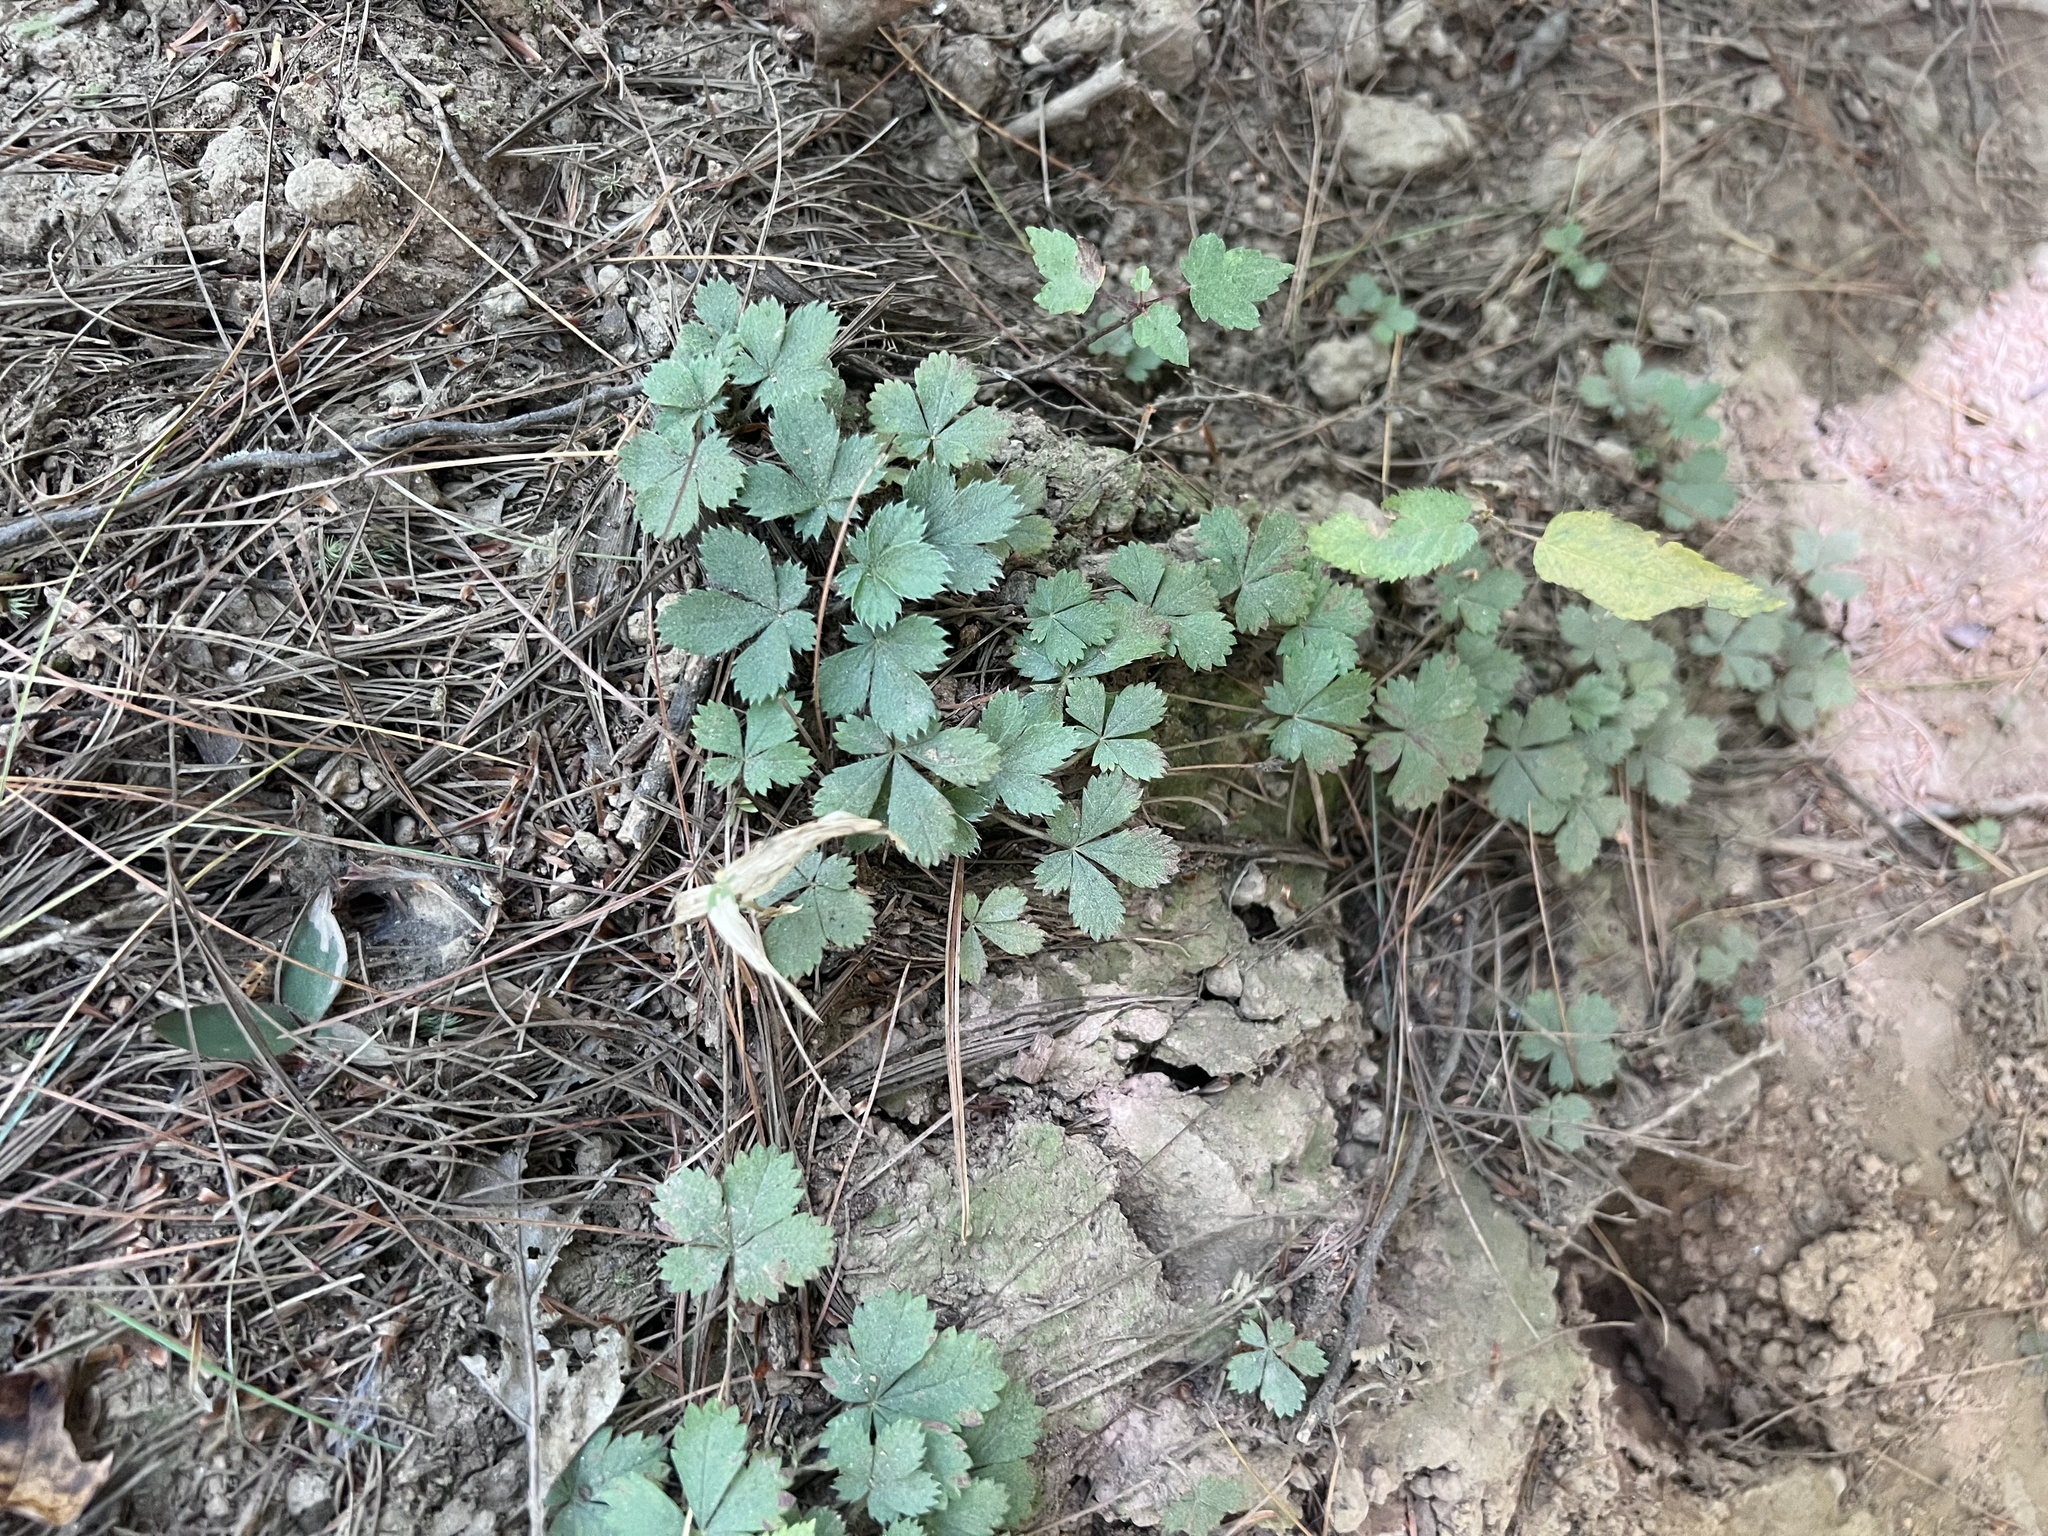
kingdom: Plantae
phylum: Tracheophyta
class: Magnoliopsida
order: Rosales
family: Rosaceae
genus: Potentilla
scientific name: Potentilla canadensis
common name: Canada cinquefoil
